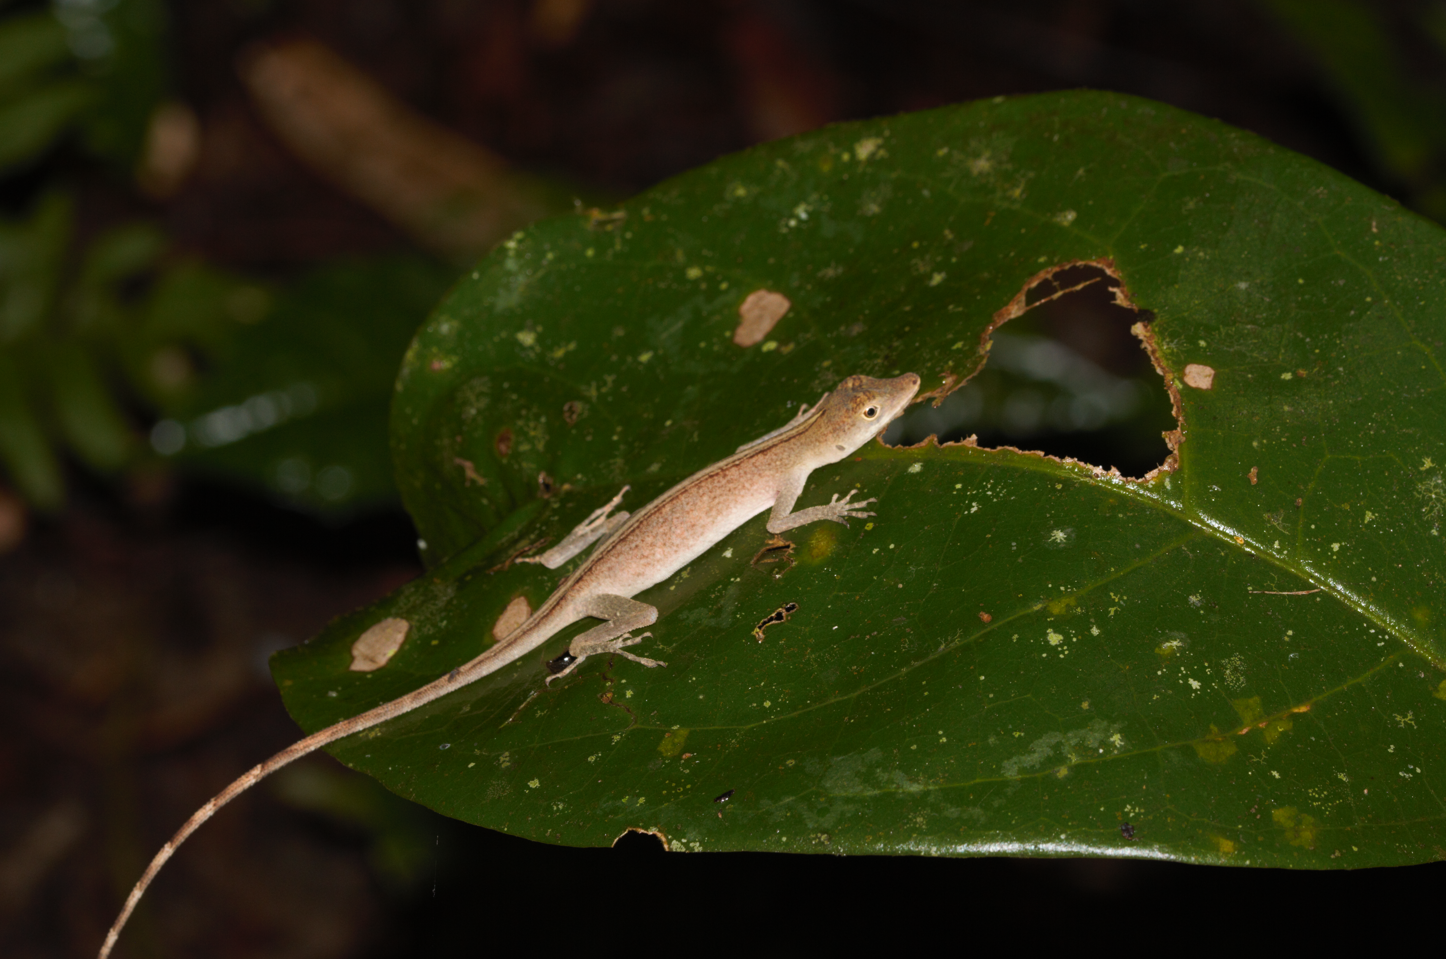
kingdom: Animalia
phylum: Chordata
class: Squamata
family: Dactyloidae
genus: Anolis
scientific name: Anolis fuscoauratus
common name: Brown-eared anole
